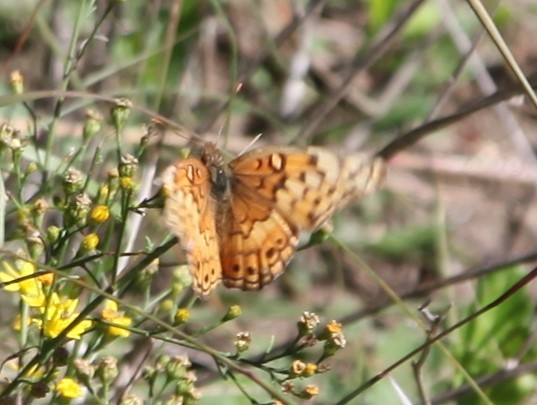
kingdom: Animalia
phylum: Arthropoda
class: Insecta
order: Lepidoptera
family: Nymphalidae
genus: Euptoieta
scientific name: Euptoieta claudia
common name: Variegated fritillary
